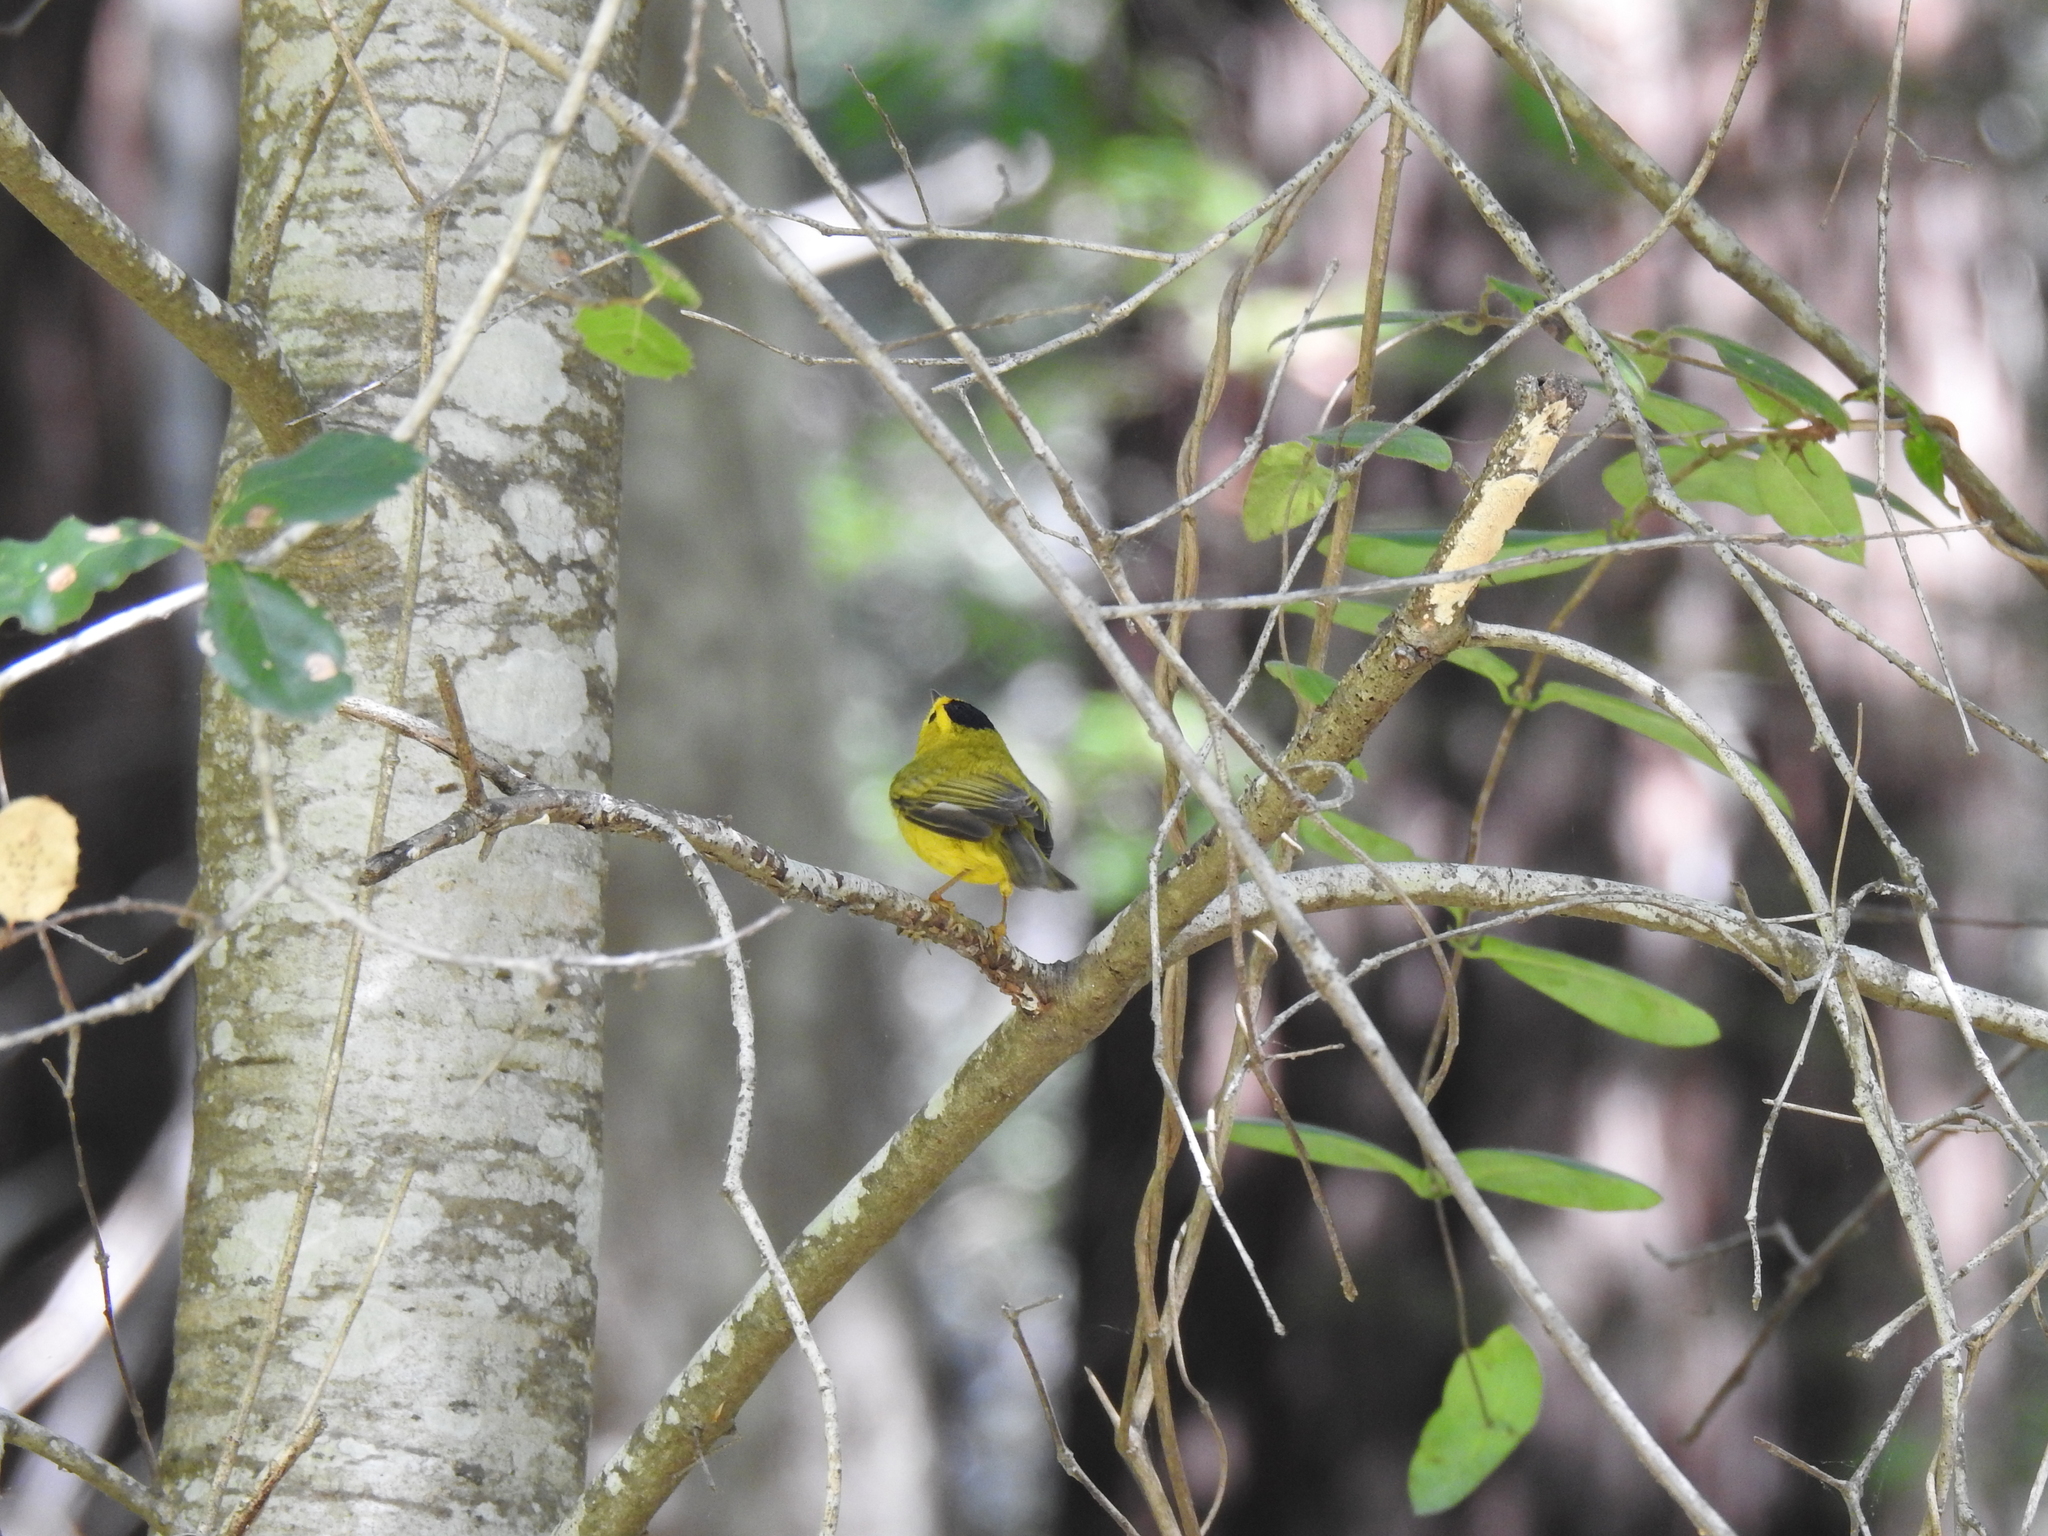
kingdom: Animalia
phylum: Chordata
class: Aves
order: Passeriformes
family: Parulidae
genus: Cardellina
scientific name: Cardellina pusilla
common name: Wilson's warbler
